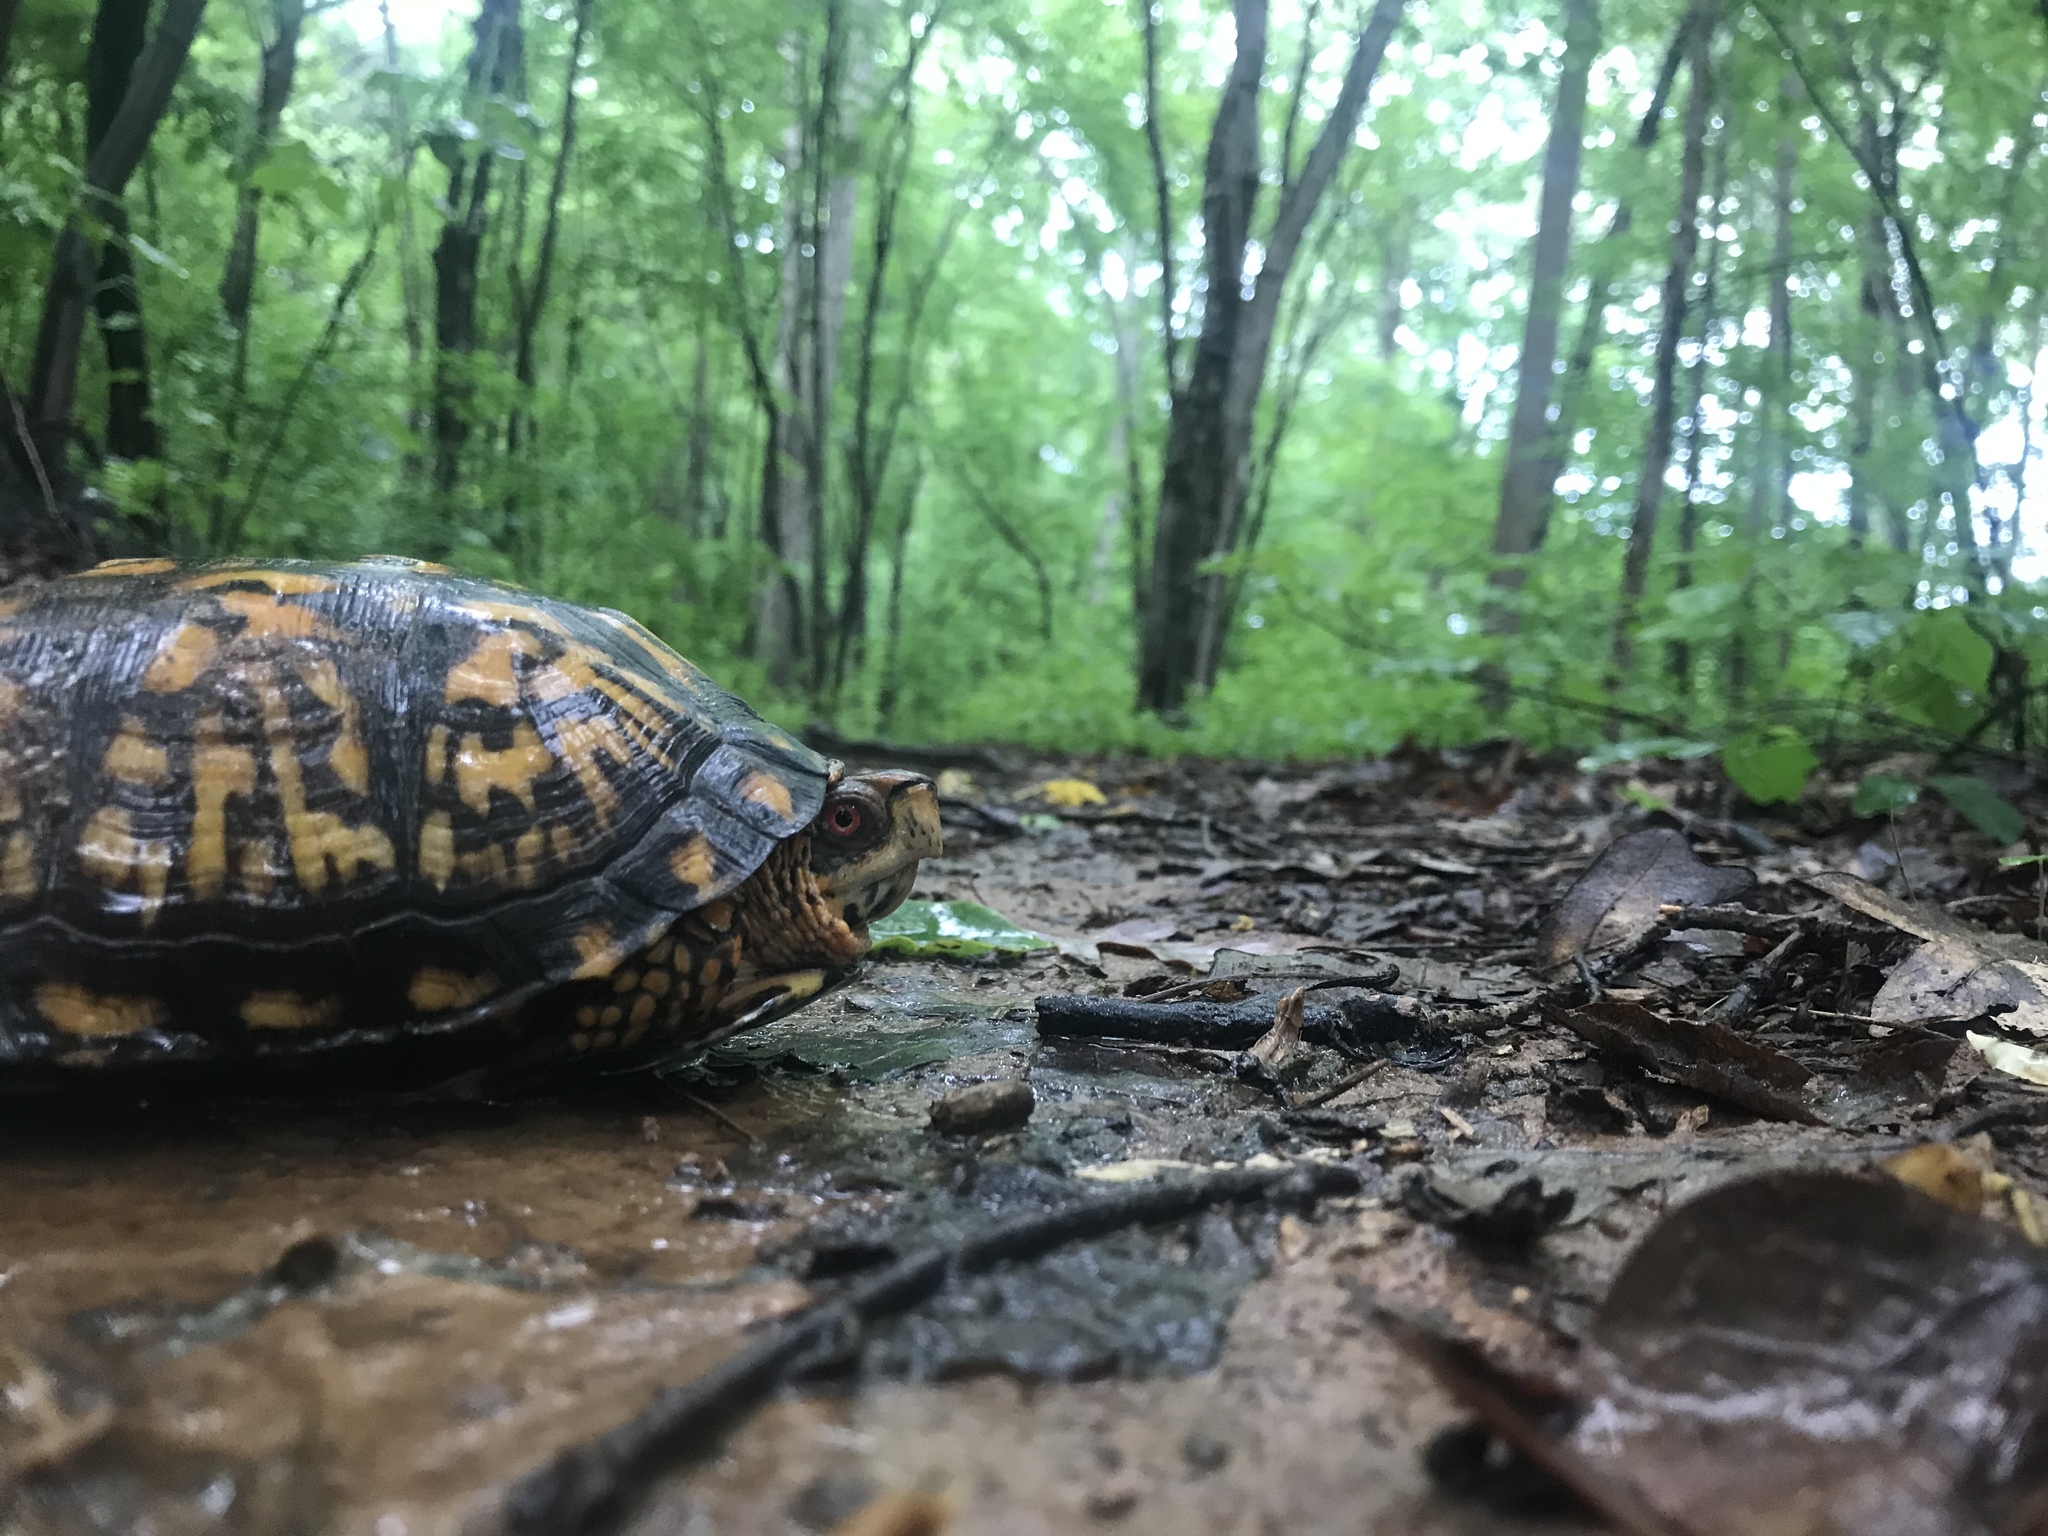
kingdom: Animalia
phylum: Chordata
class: Testudines
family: Emydidae
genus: Terrapene
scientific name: Terrapene carolina
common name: Common box turtle
